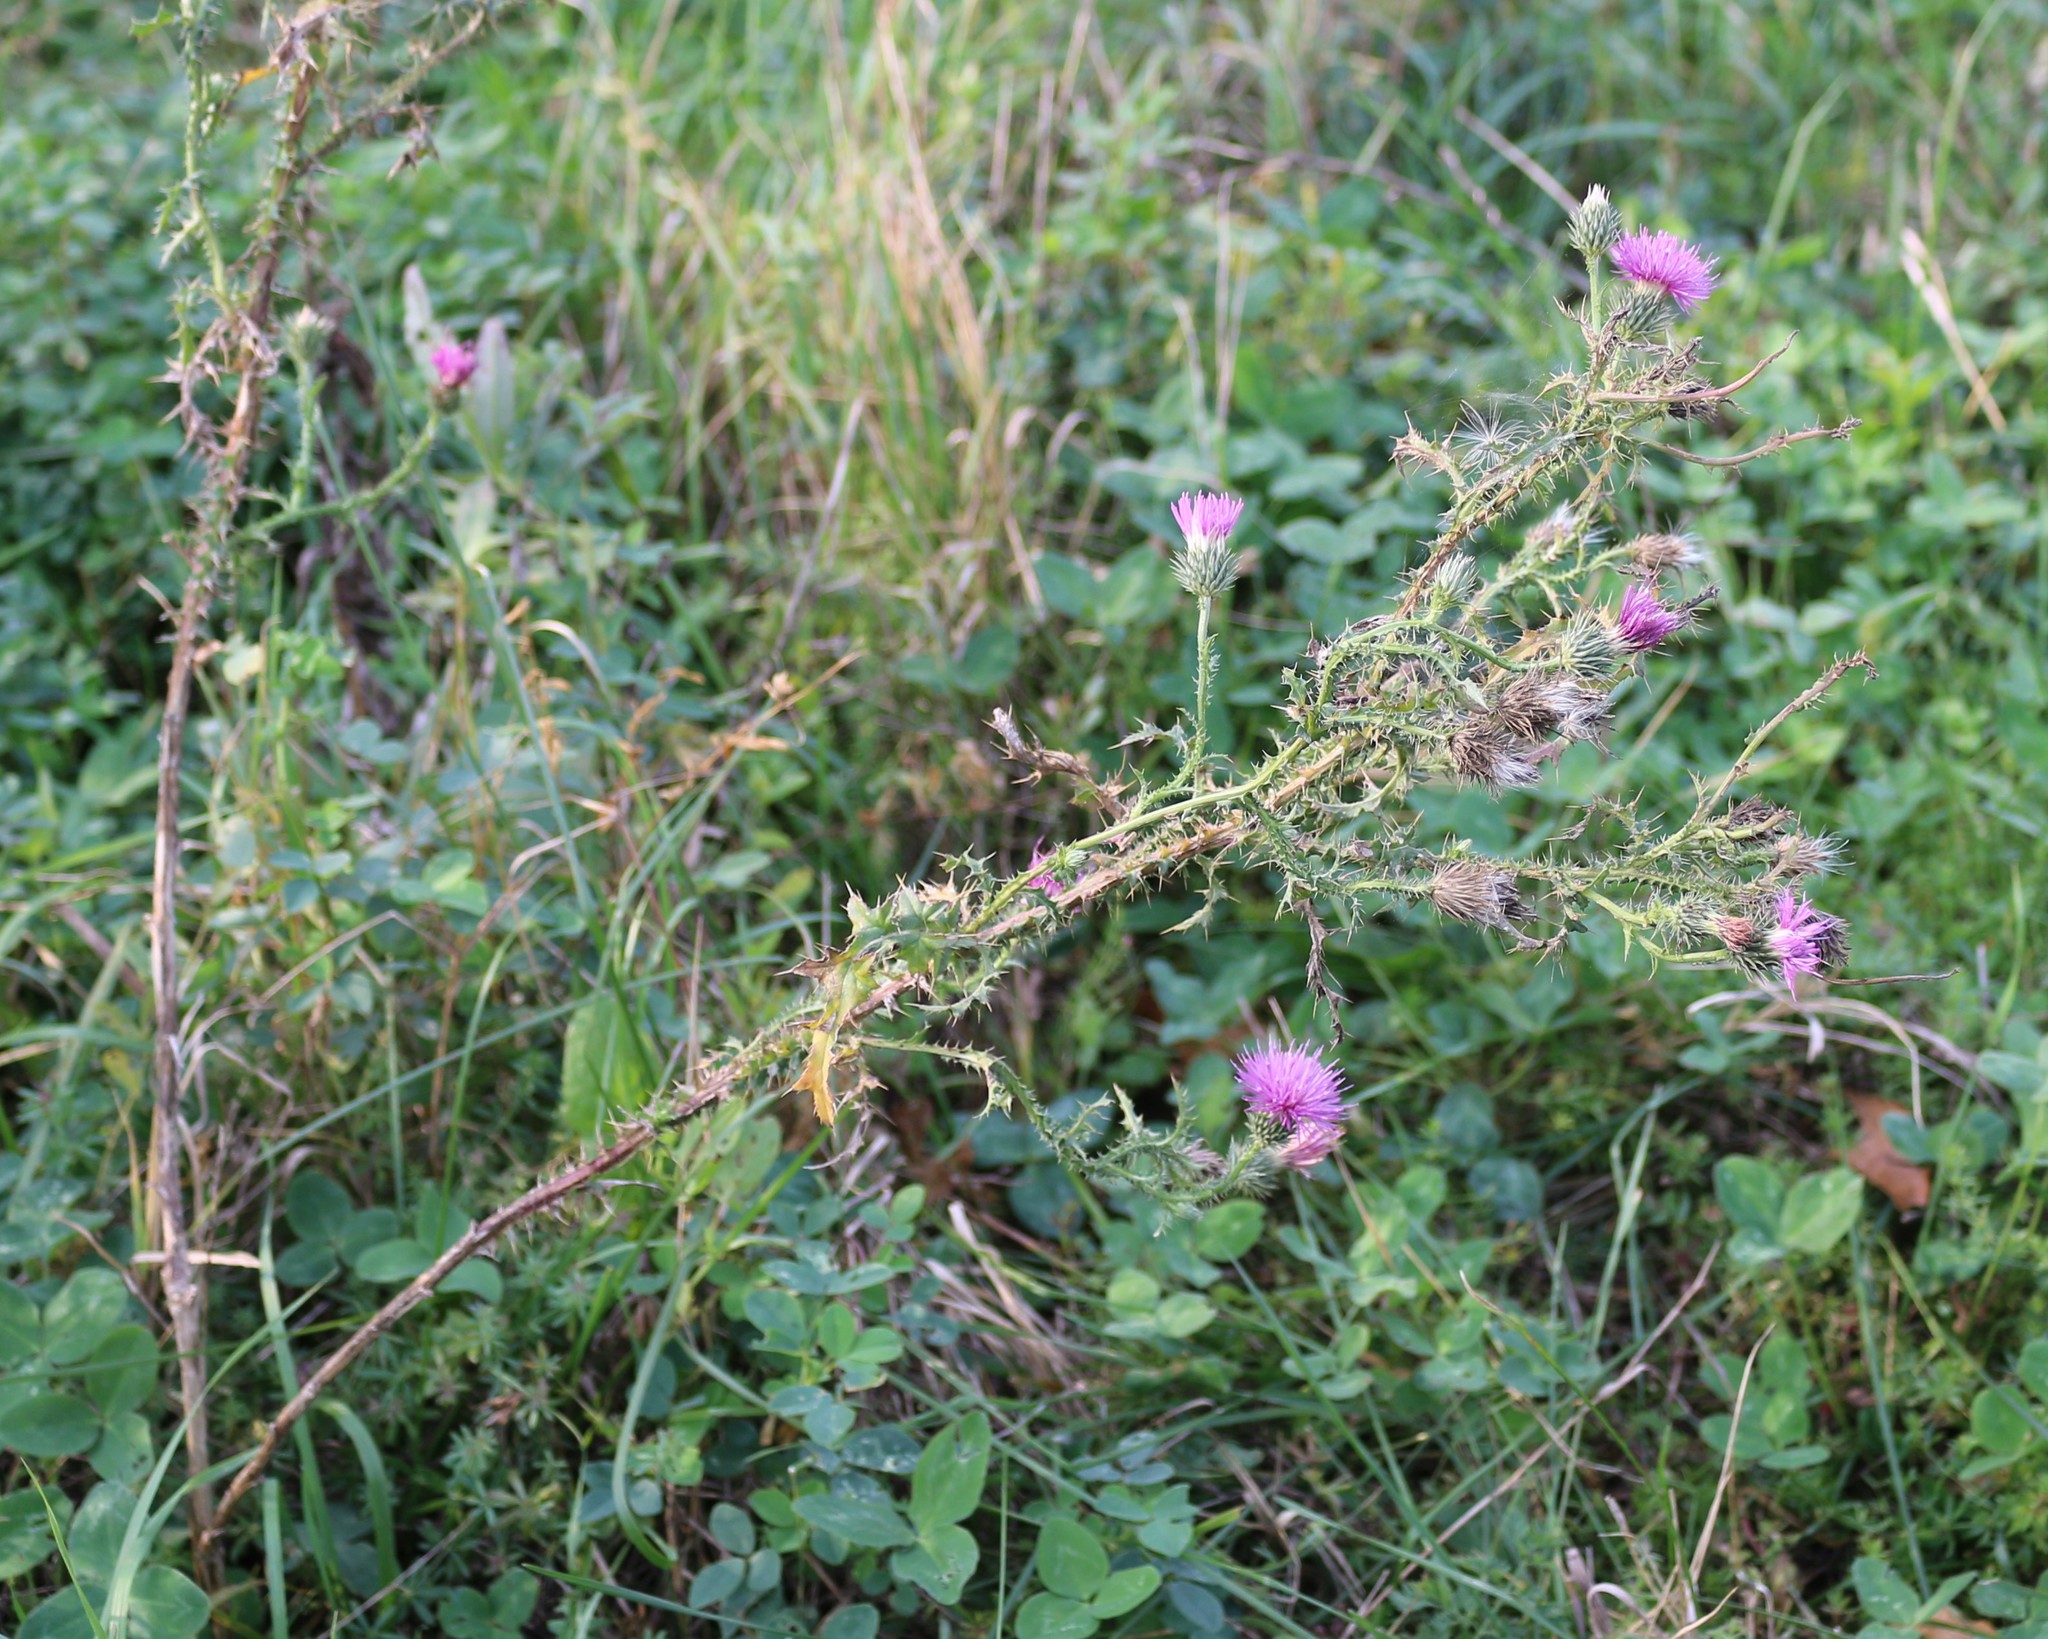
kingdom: Plantae
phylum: Tracheophyta
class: Magnoliopsida
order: Asterales
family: Asteraceae
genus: Carduus
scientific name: Carduus acanthoides
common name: Plumeless thistle
